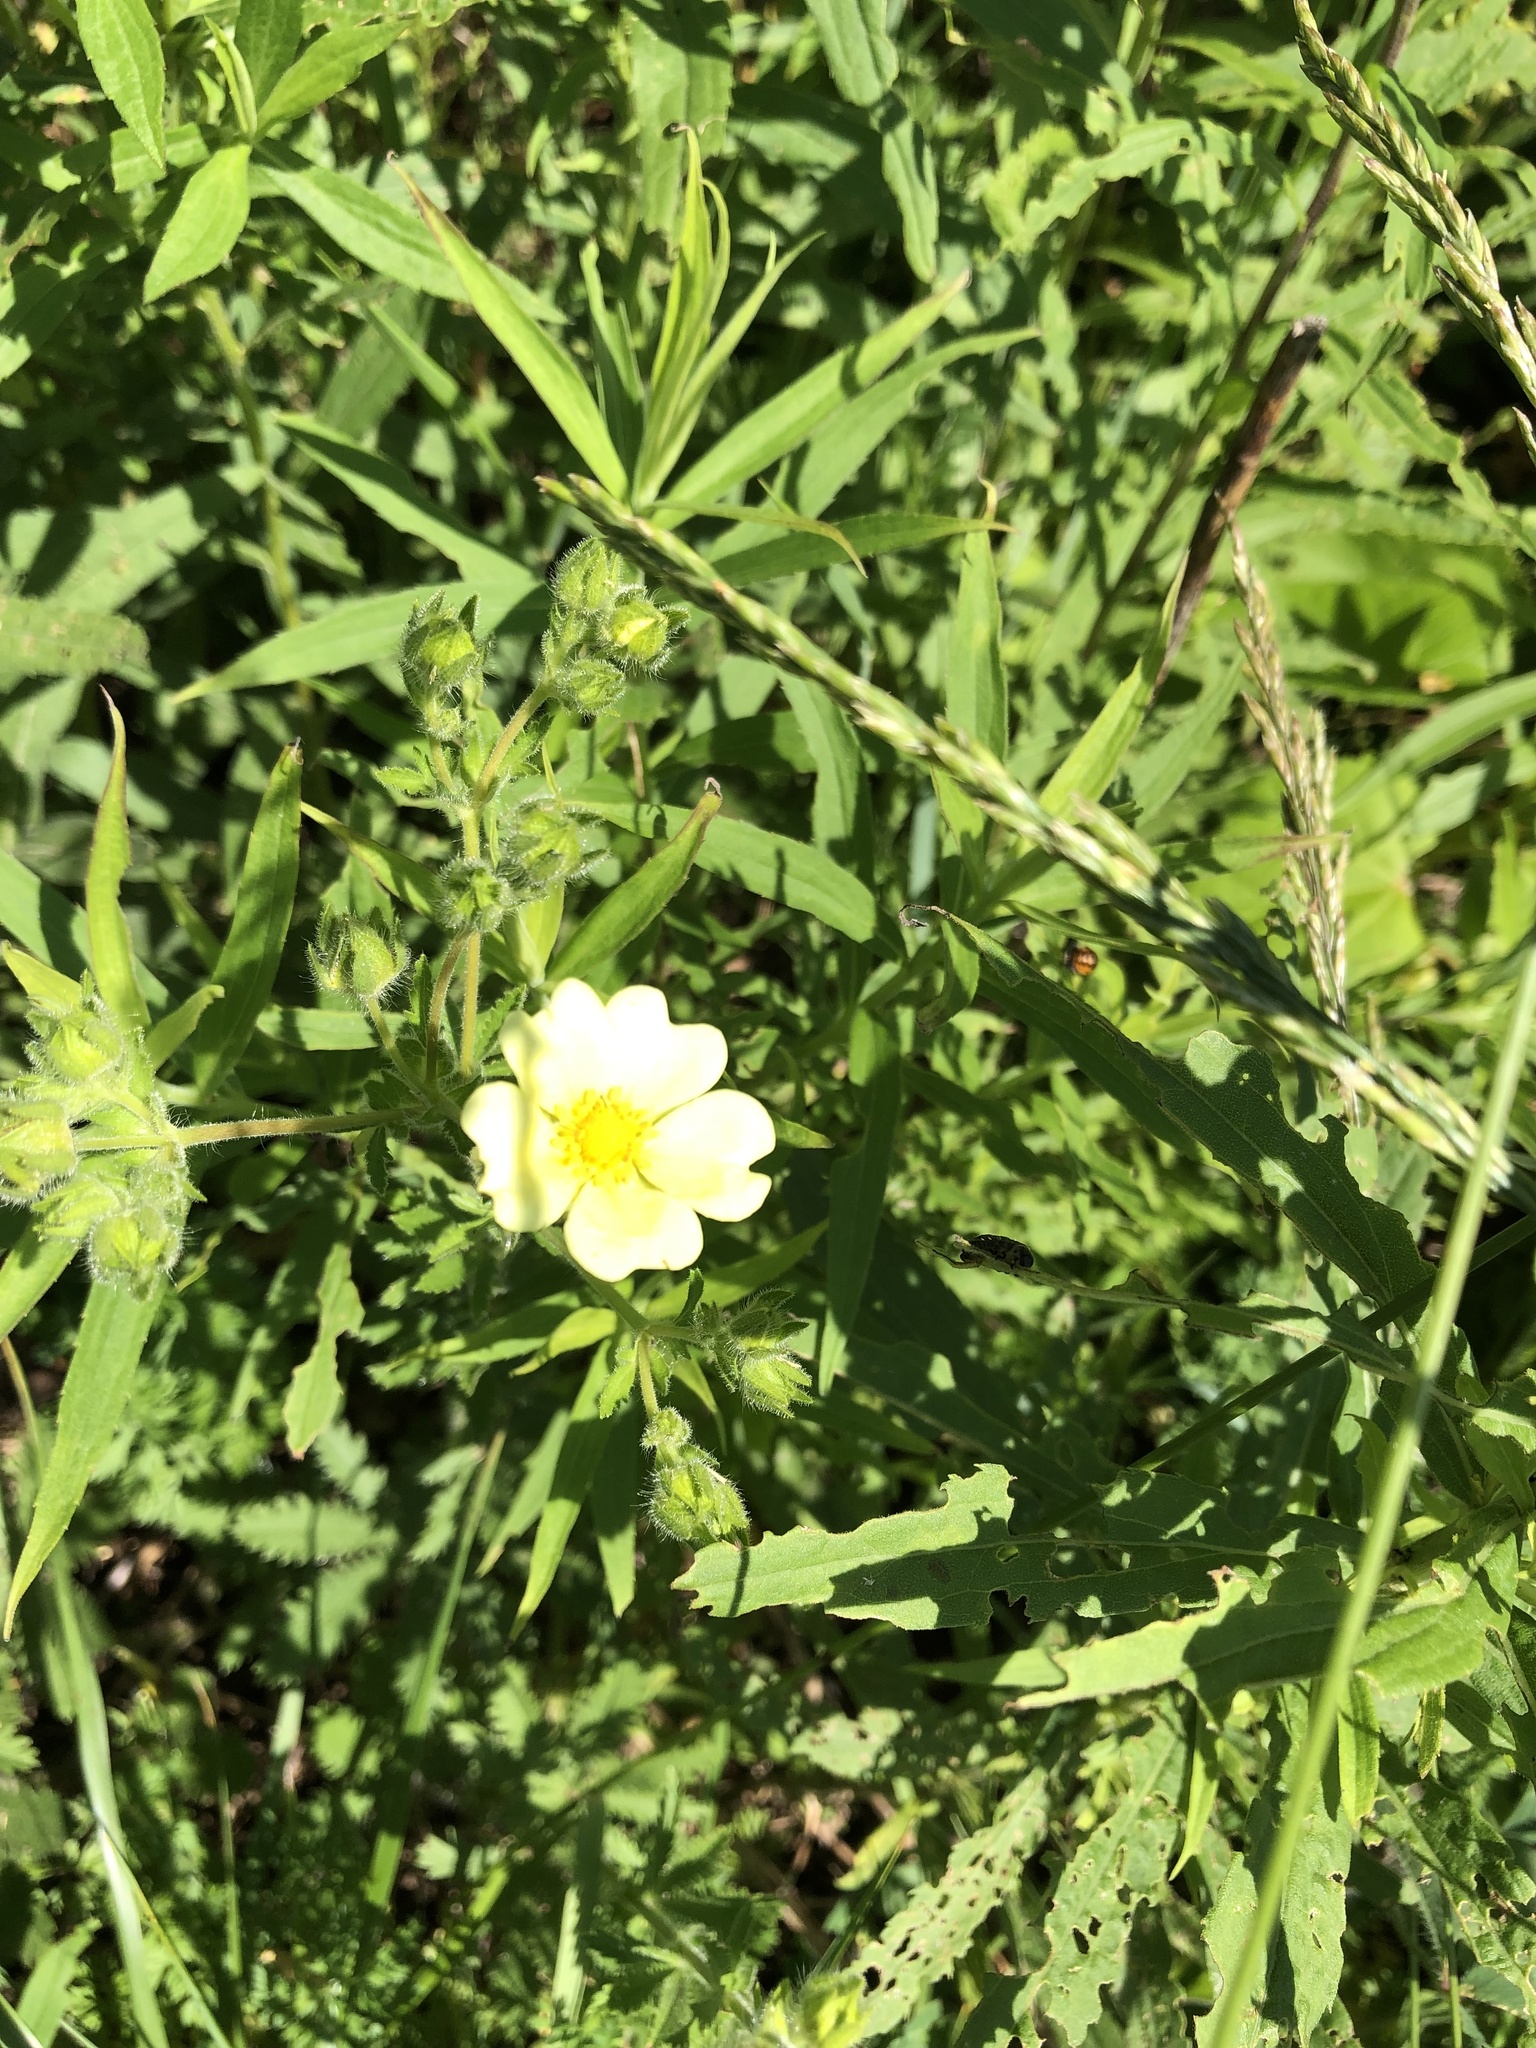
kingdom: Plantae
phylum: Tracheophyta
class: Magnoliopsida
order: Rosales
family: Rosaceae
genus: Potentilla
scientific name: Potentilla recta
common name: Sulphur cinquefoil
